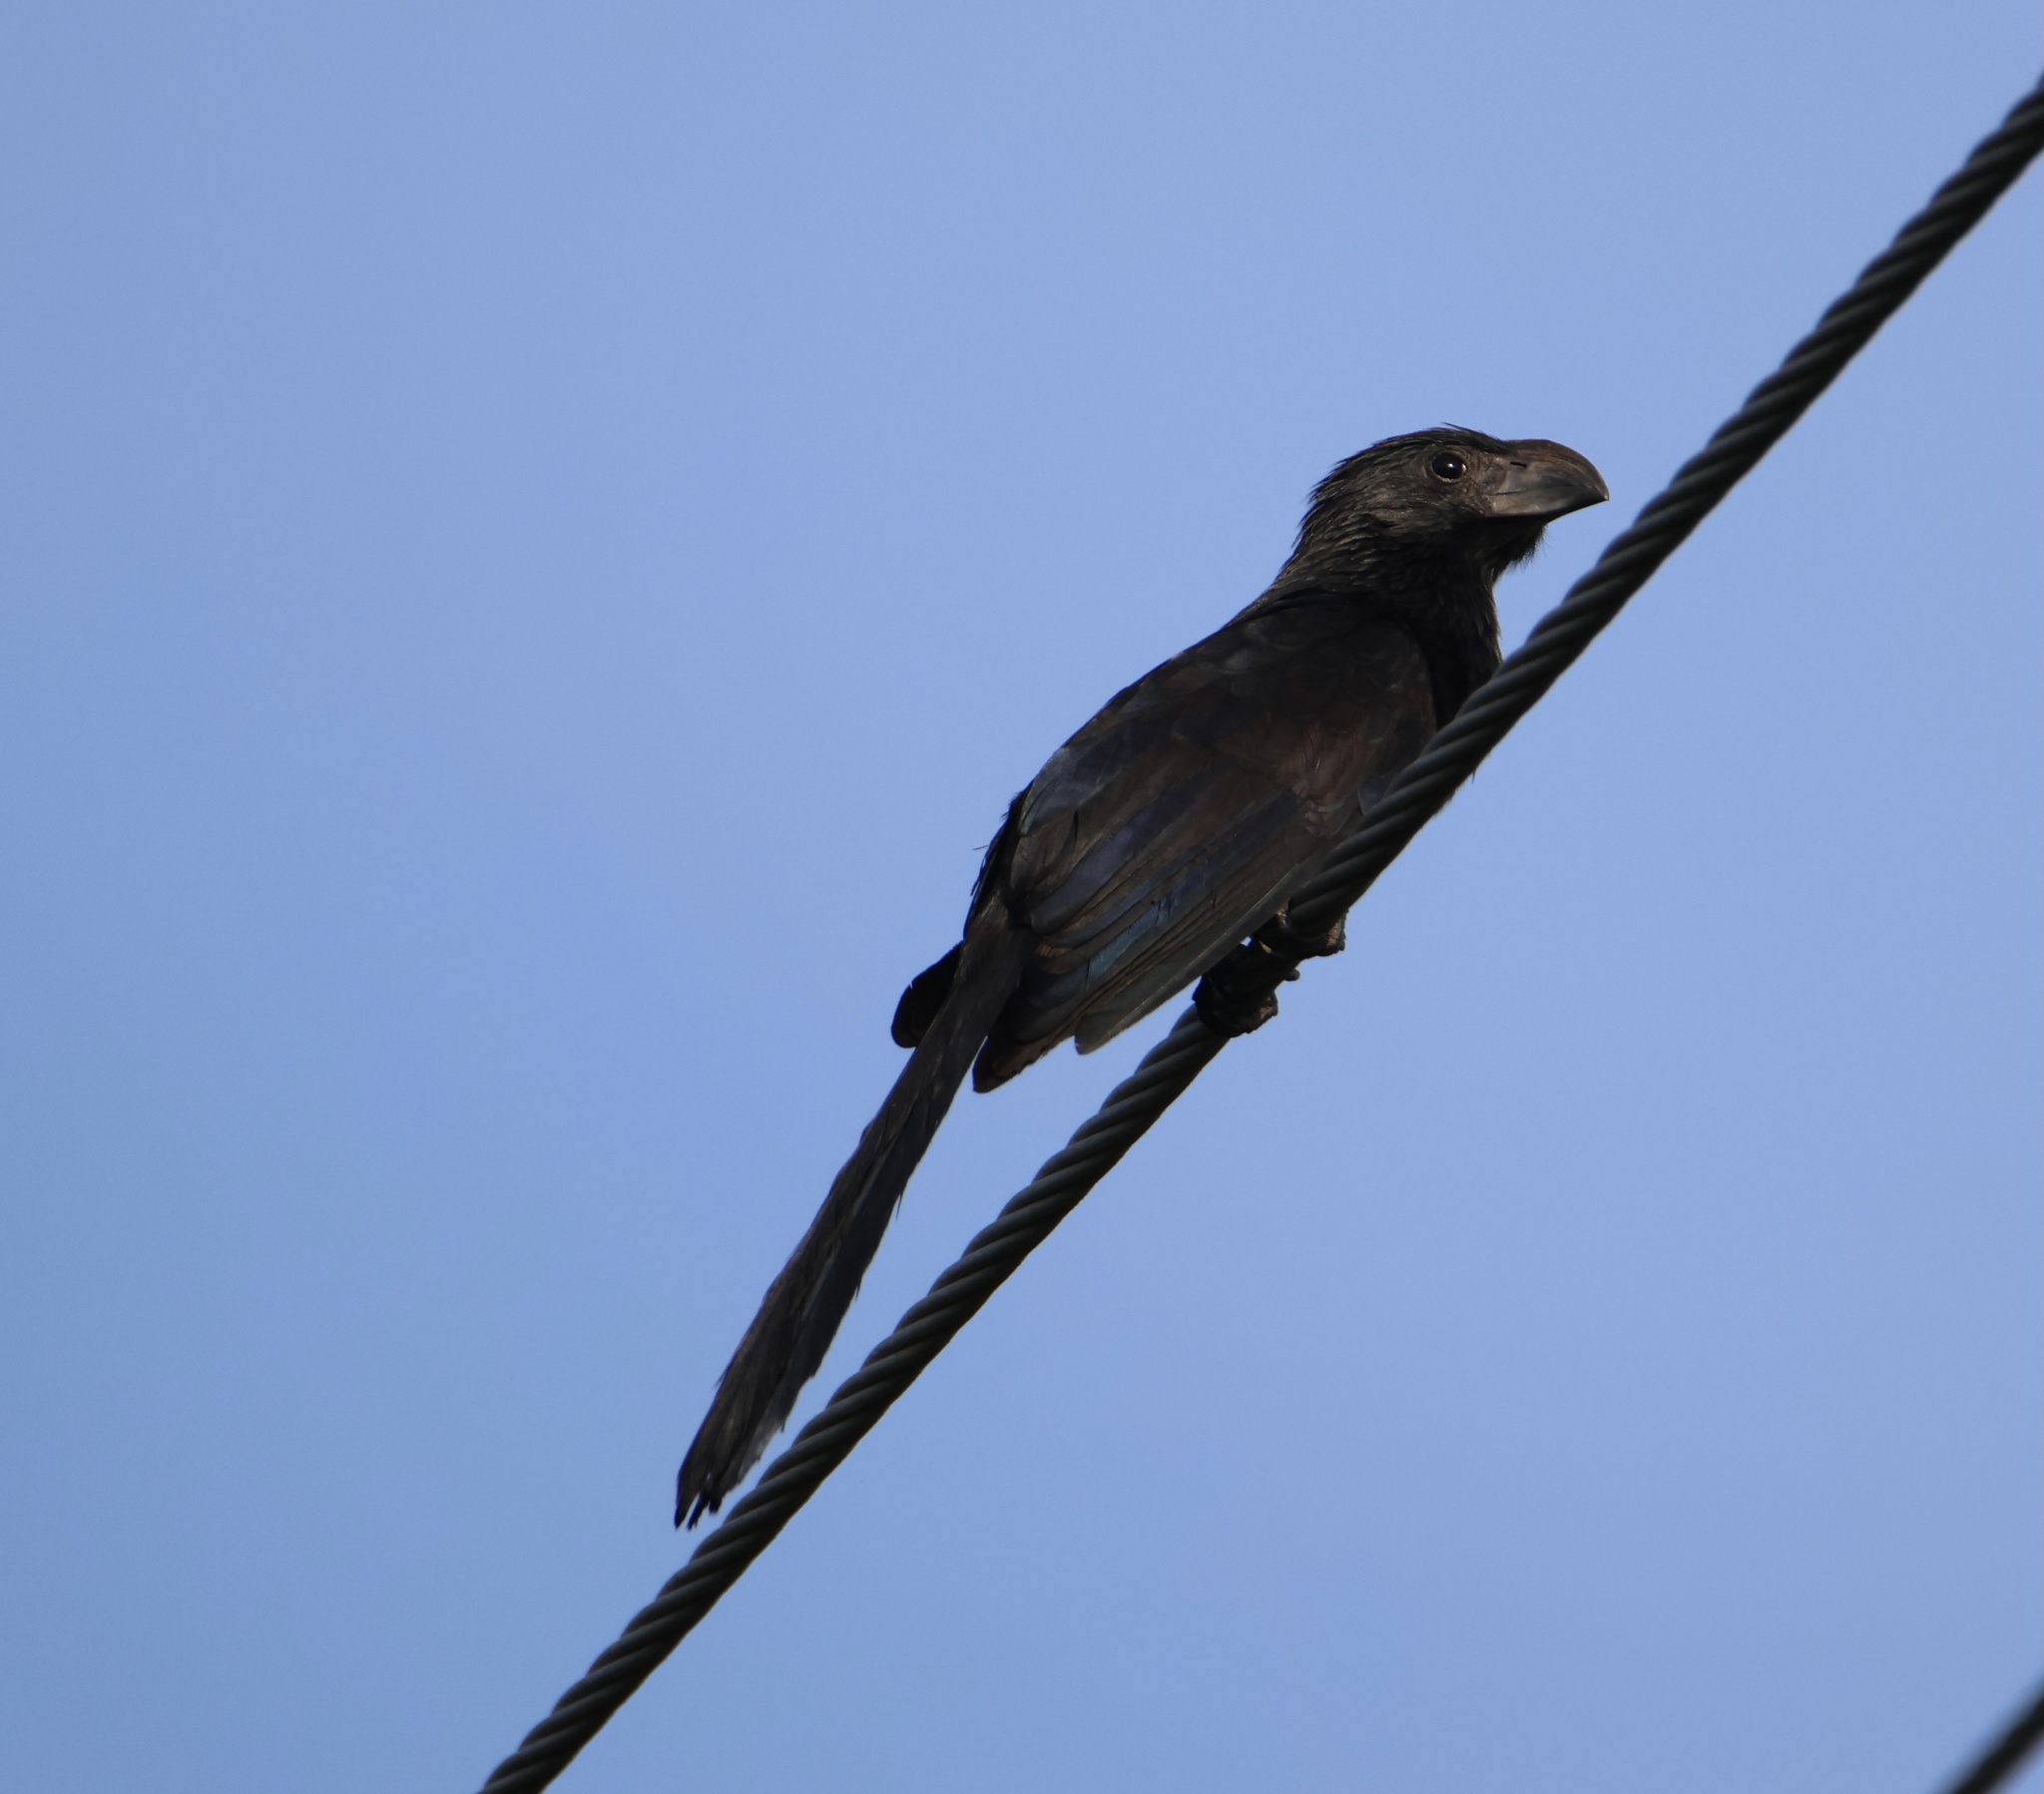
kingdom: Animalia
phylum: Chordata
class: Aves
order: Cuculiformes
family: Cuculidae
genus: Crotophaga
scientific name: Crotophaga sulcirostris
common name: Groove-billed ani
